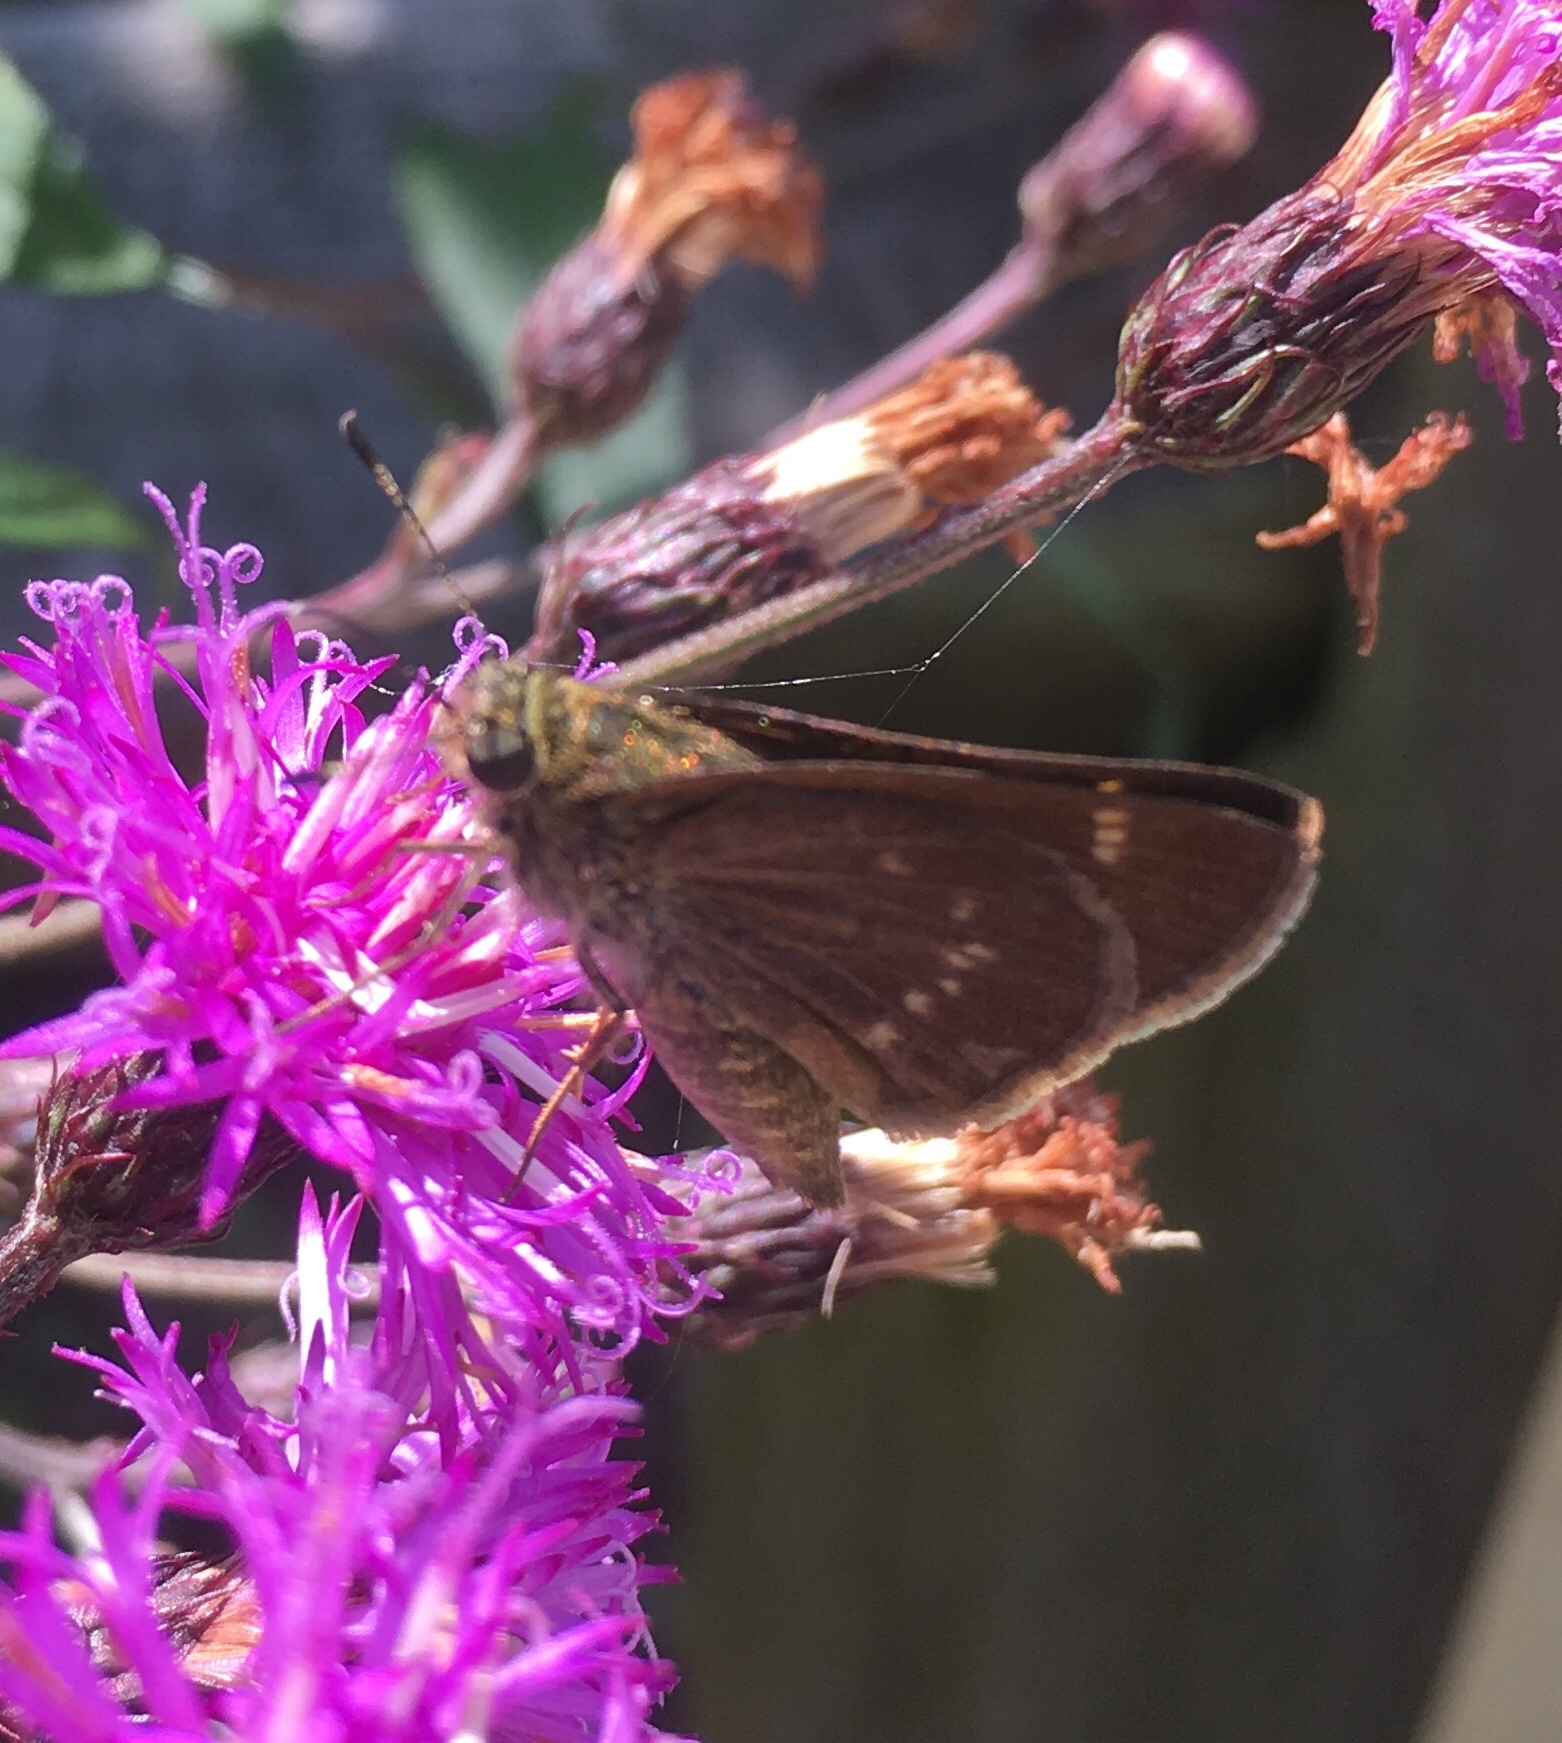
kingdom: Animalia
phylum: Arthropoda
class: Insecta
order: Lepidoptera
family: Hesperiidae
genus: Vernia
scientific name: Vernia verna
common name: Little glassywing
